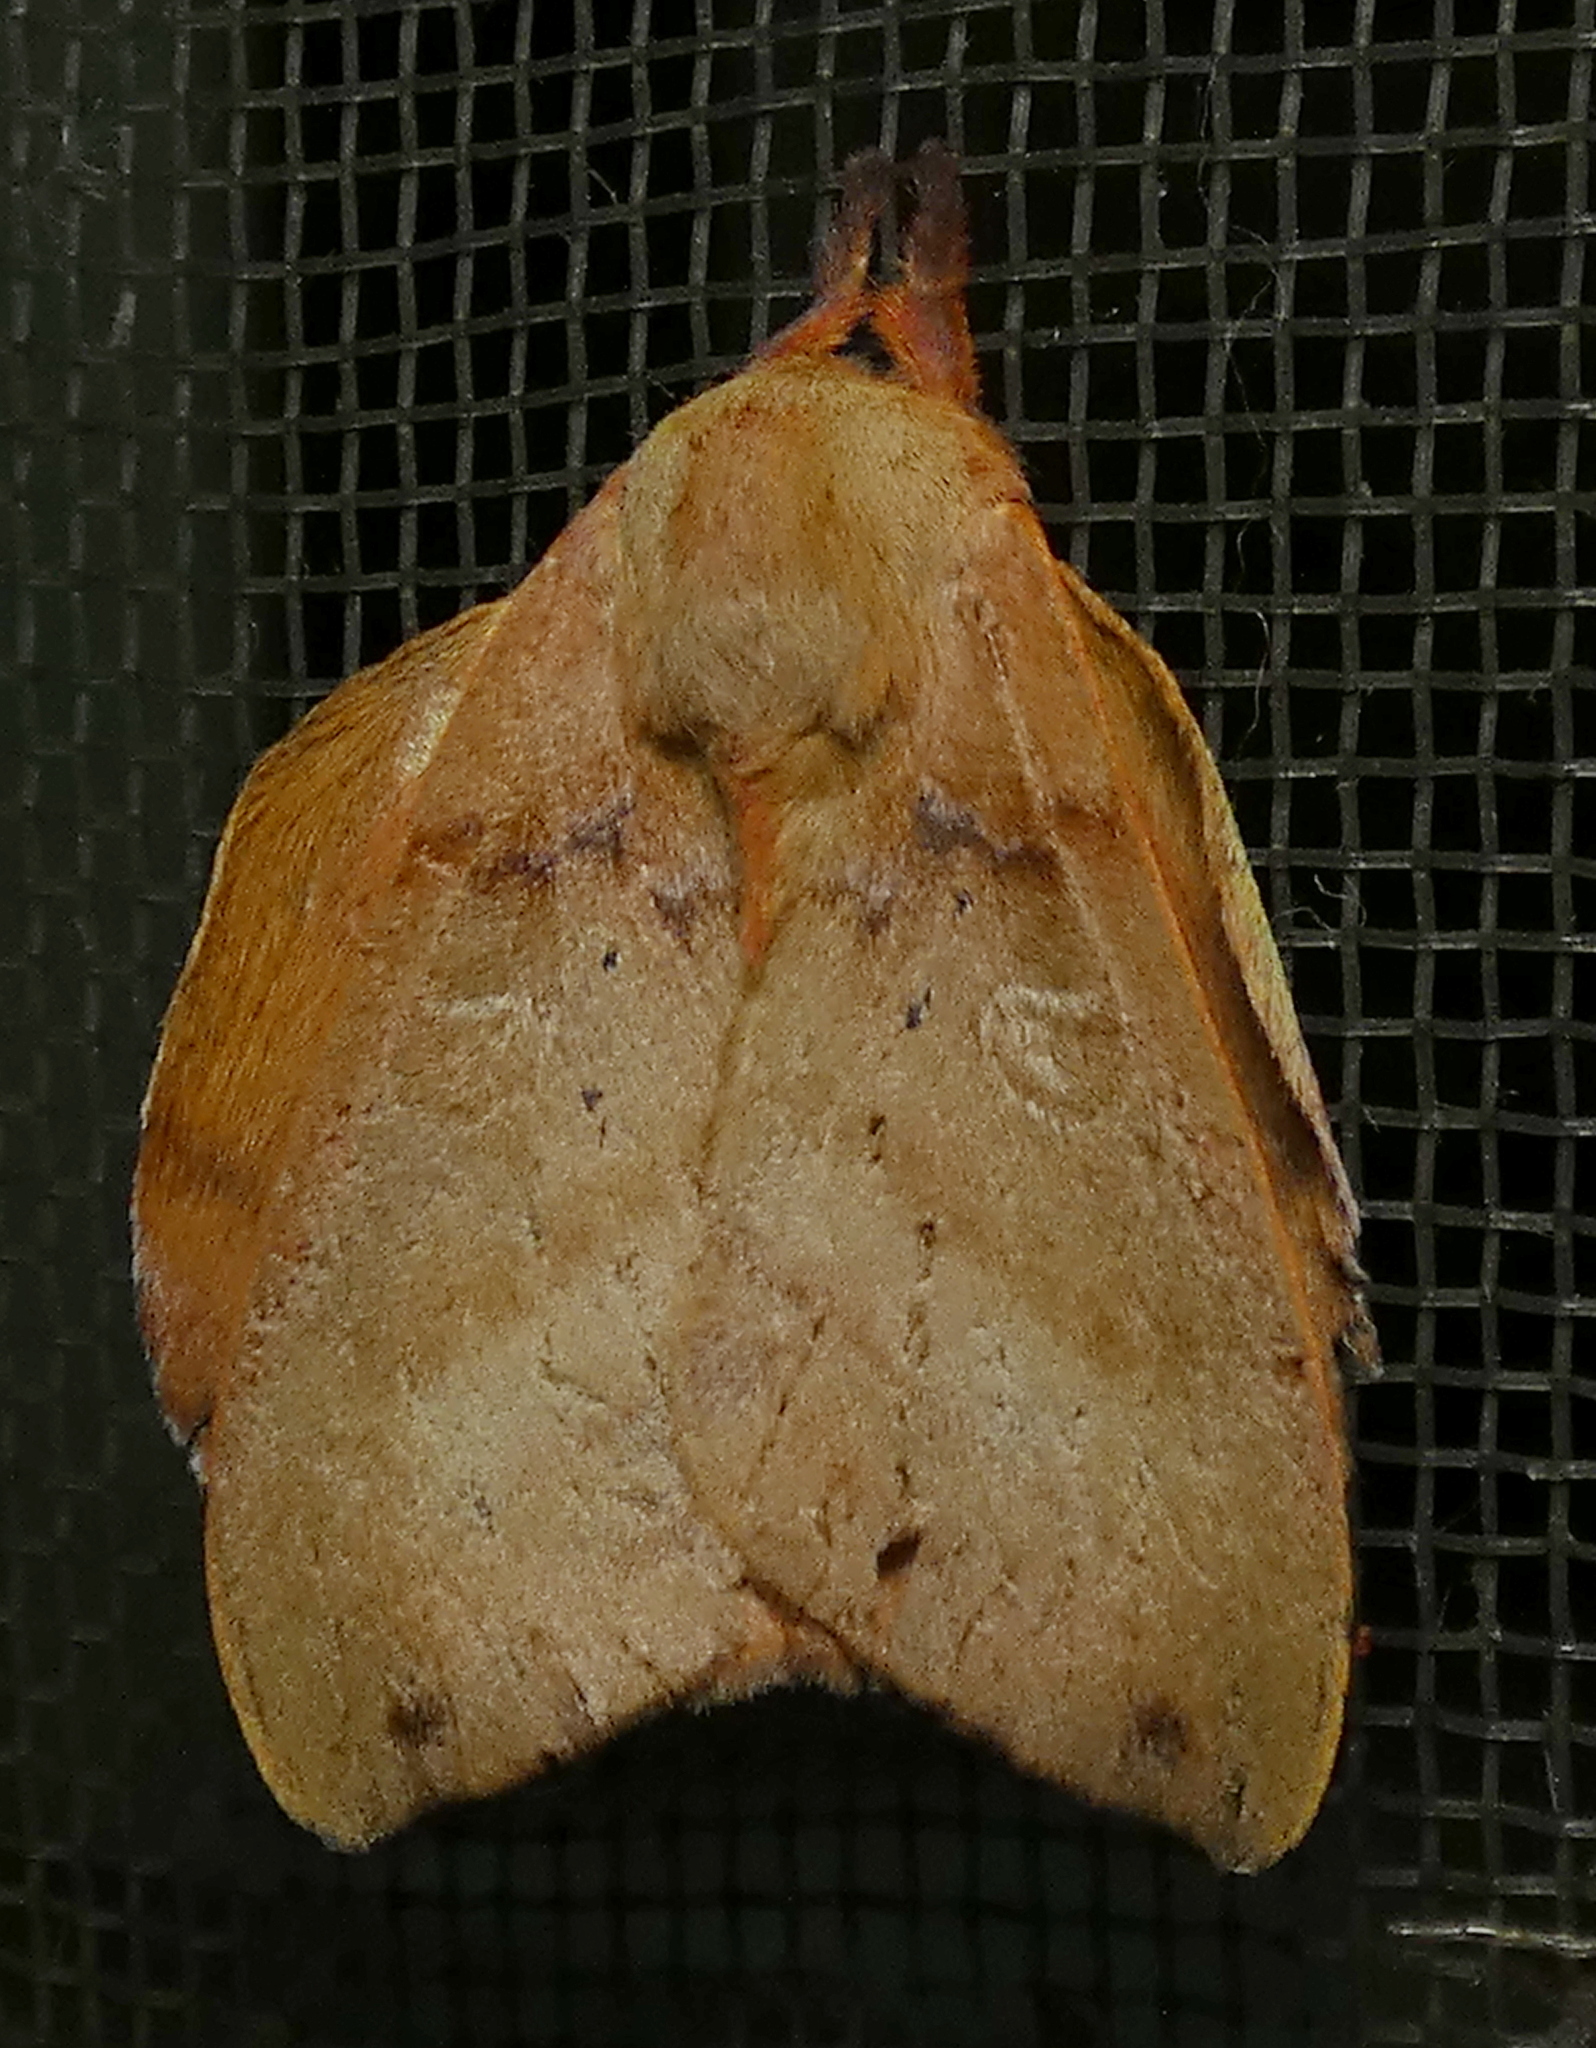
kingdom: Animalia
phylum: Arthropoda
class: Insecta
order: Lepidoptera
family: Saturniidae
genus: Automerina
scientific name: Automerina cypria
